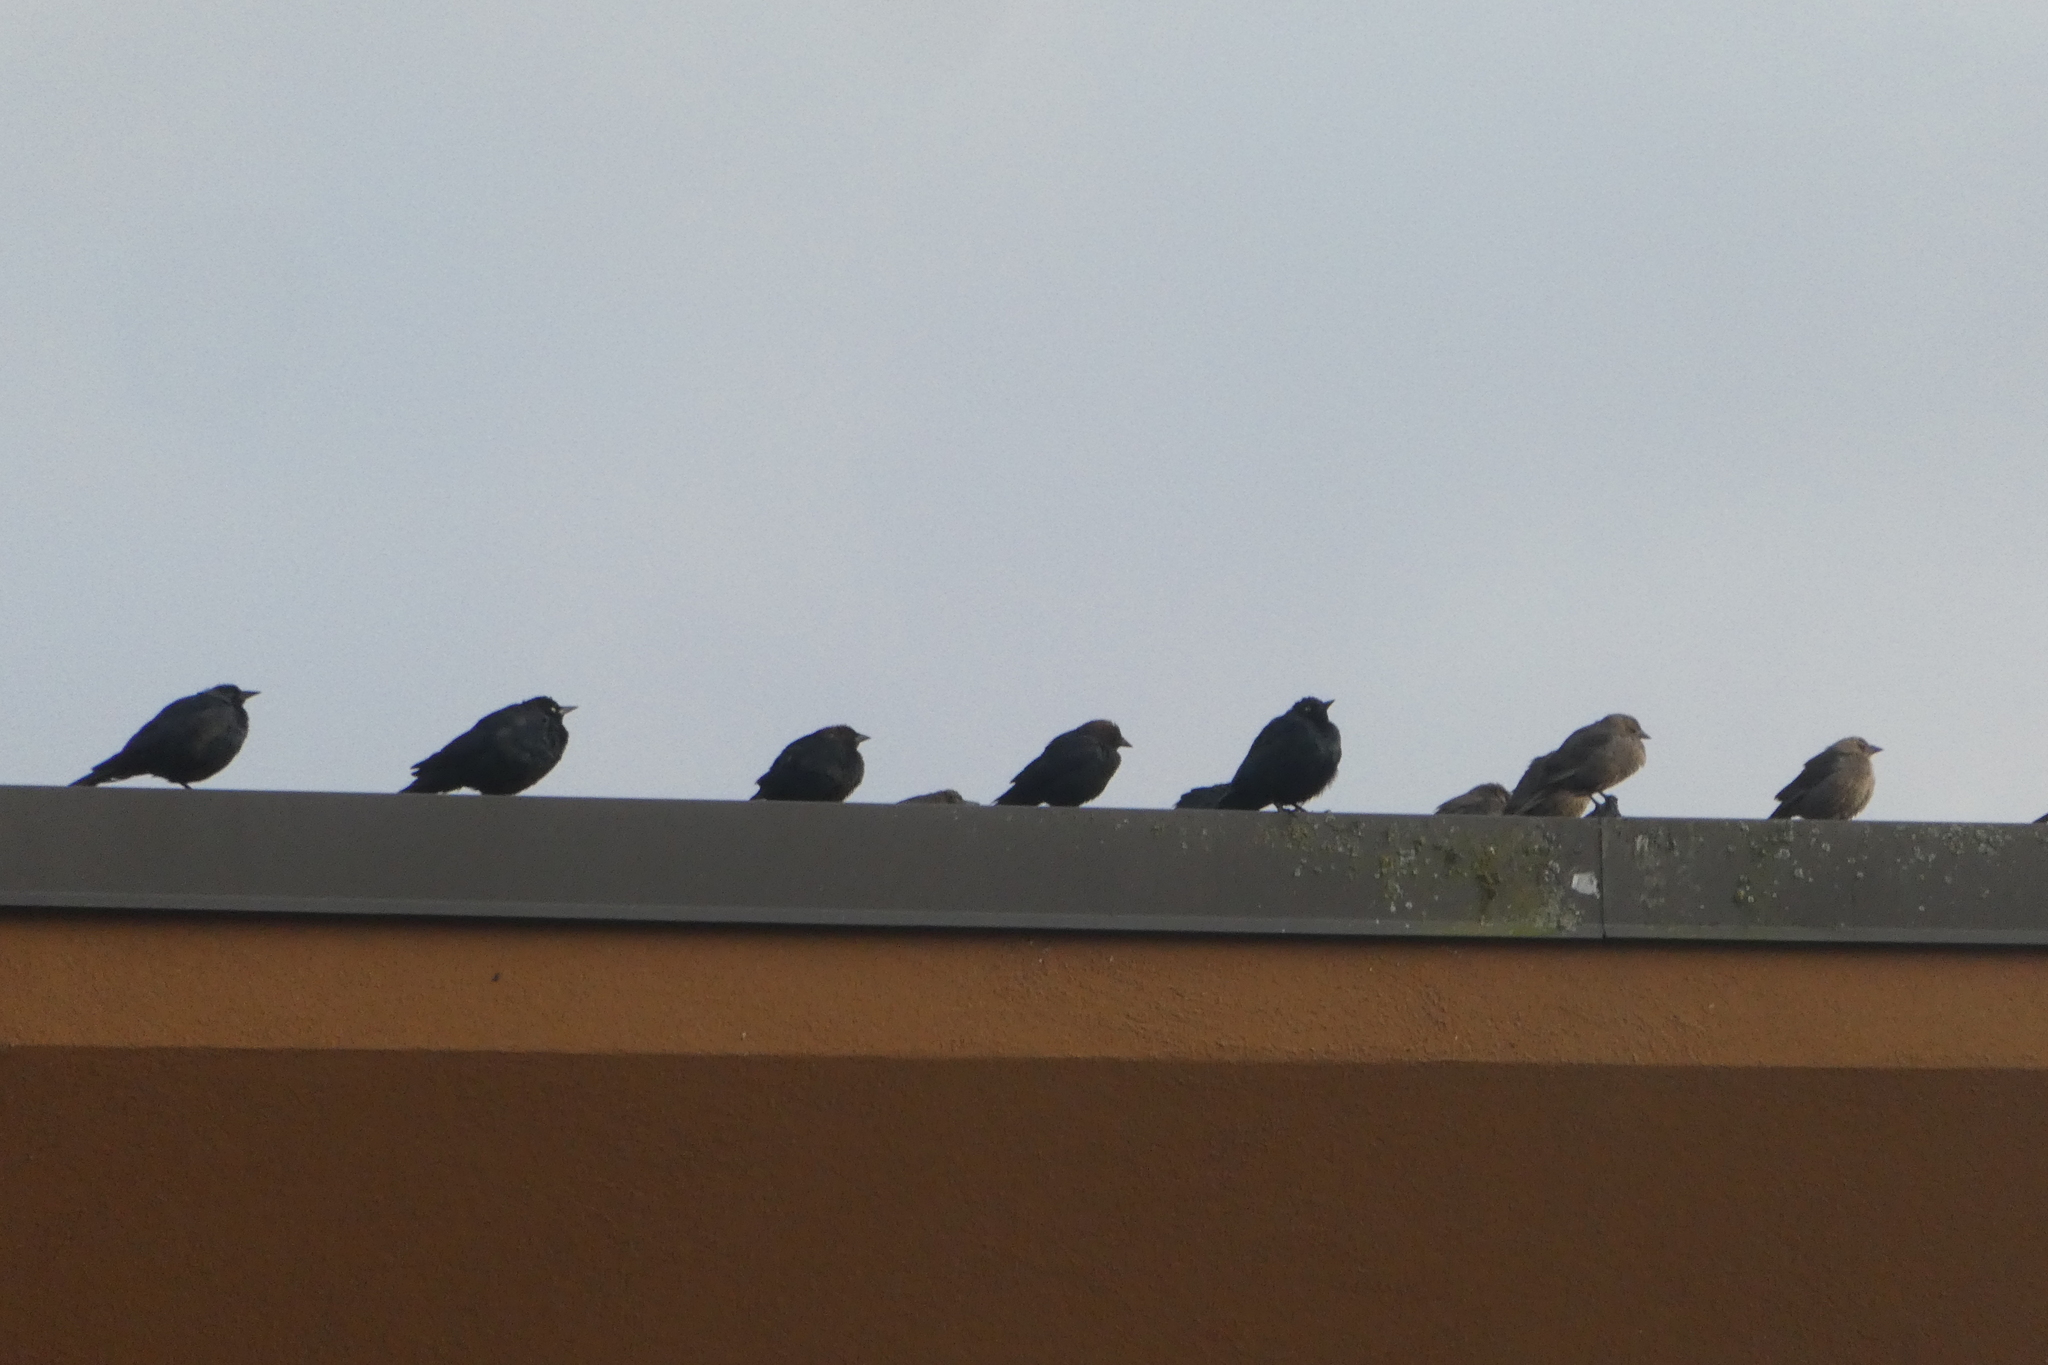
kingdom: Animalia
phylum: Chordata
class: Aves
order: Passeriformes
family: Icteridae
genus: Euphagus
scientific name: Euphagus cyanocephalus
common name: Brewer's blackbird
